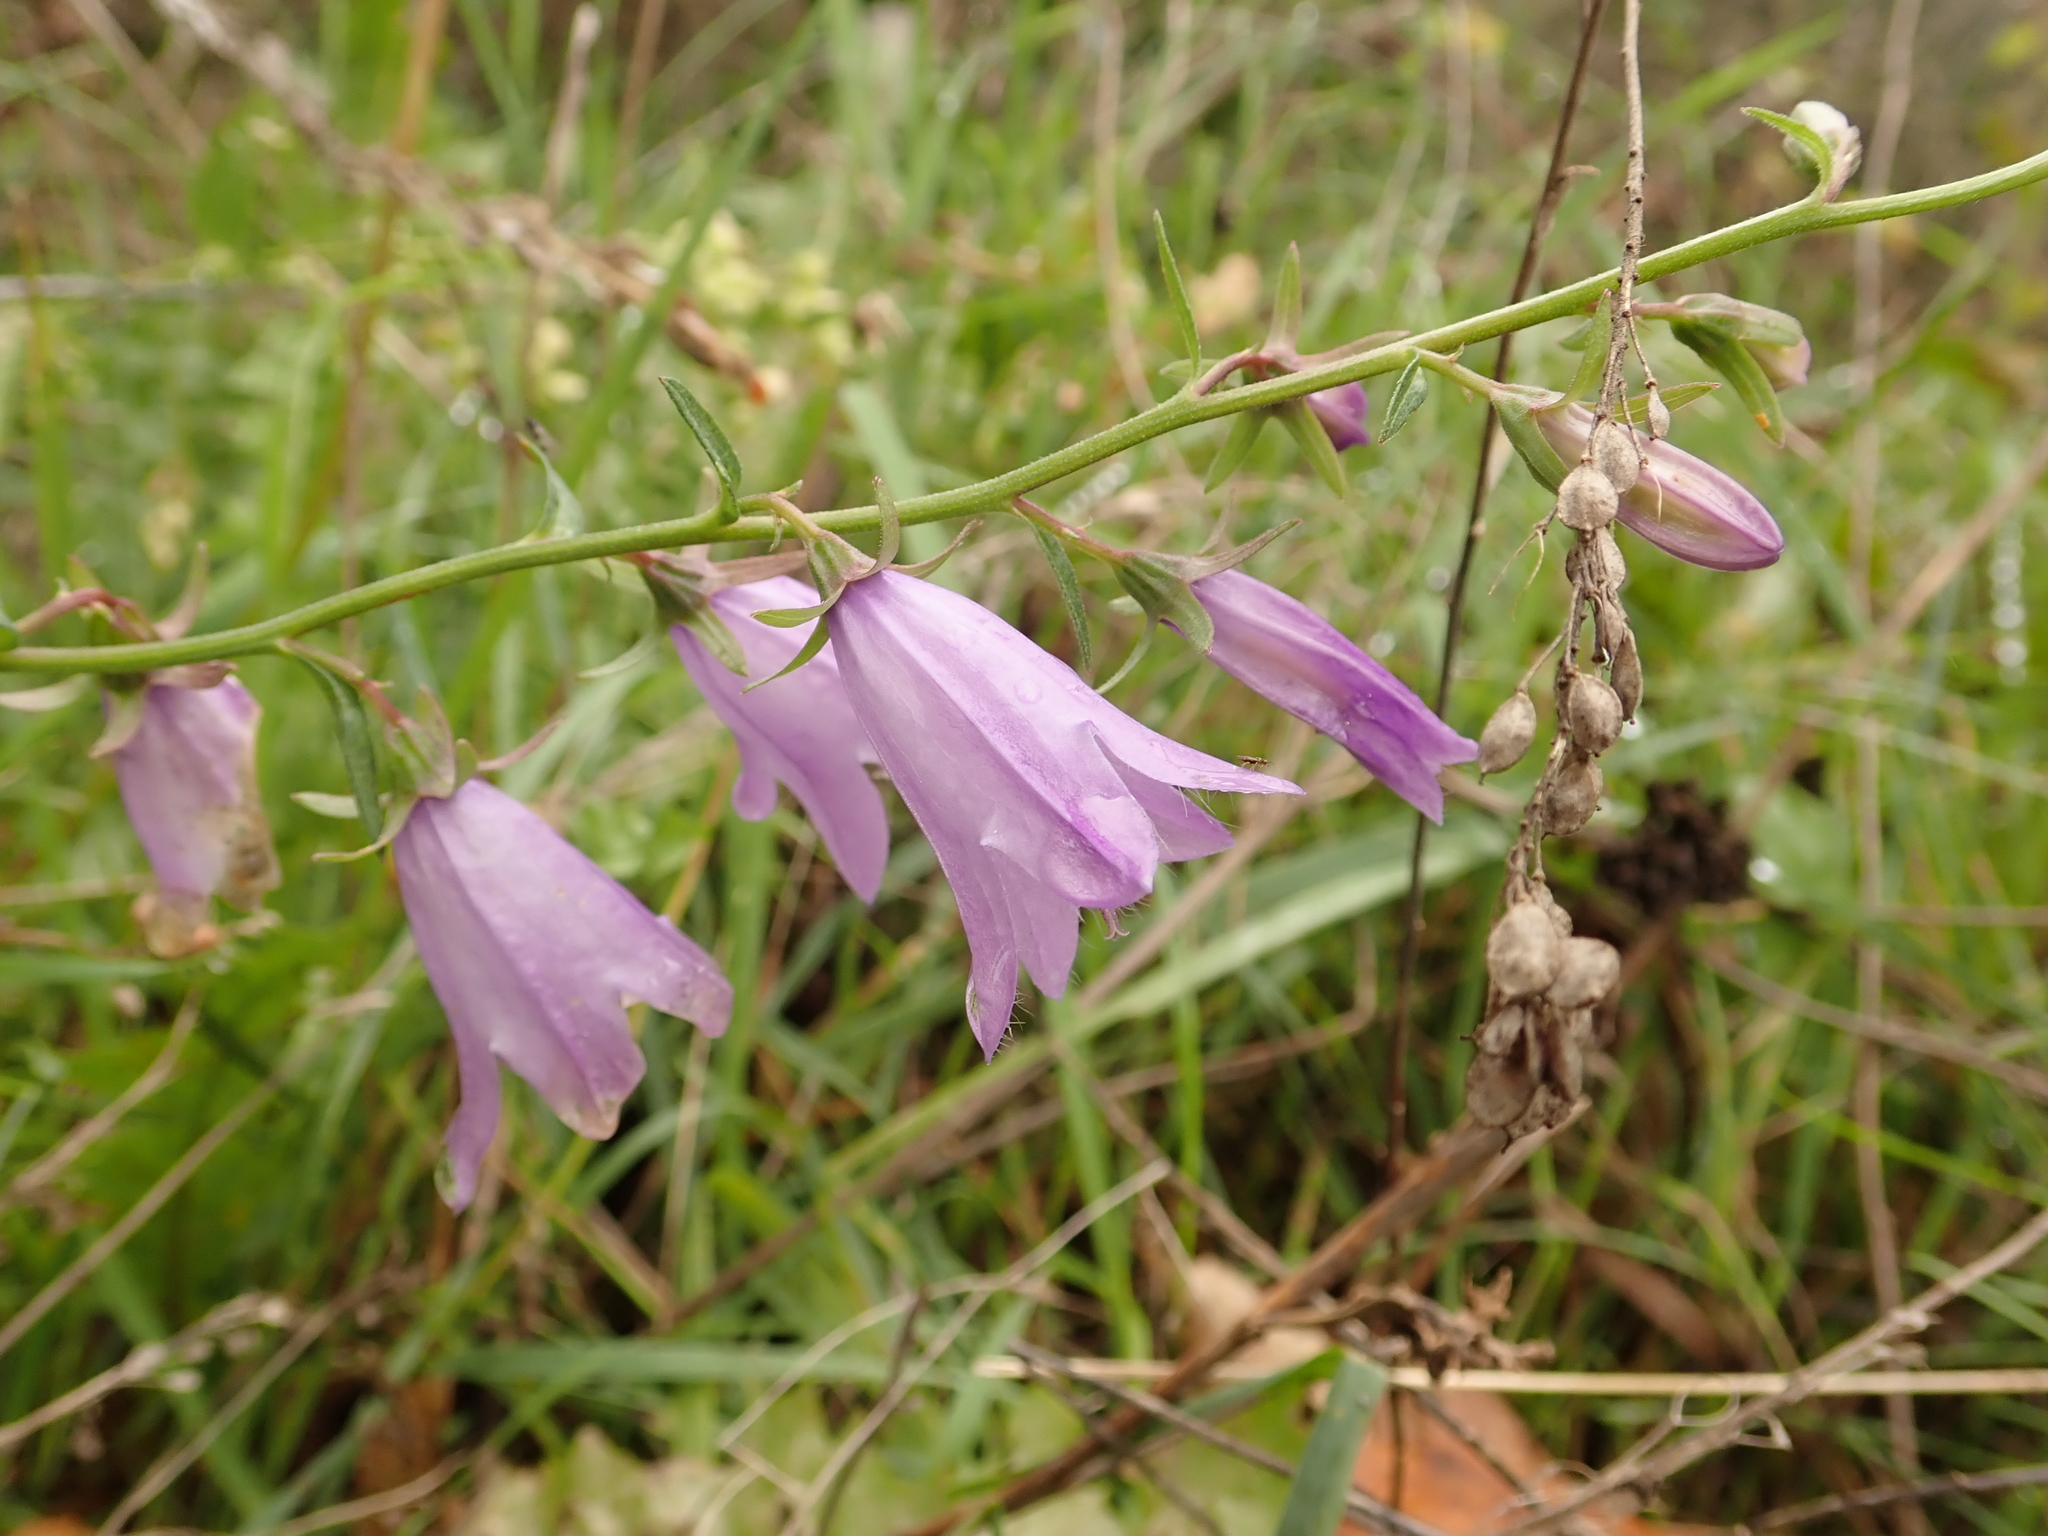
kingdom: Plantae
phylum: Tracheophyta
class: Magnoliopsida
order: Asterales
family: Campanulaceae
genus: Campanula
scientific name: Campanula rapunculoides
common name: Creeping bellflower
